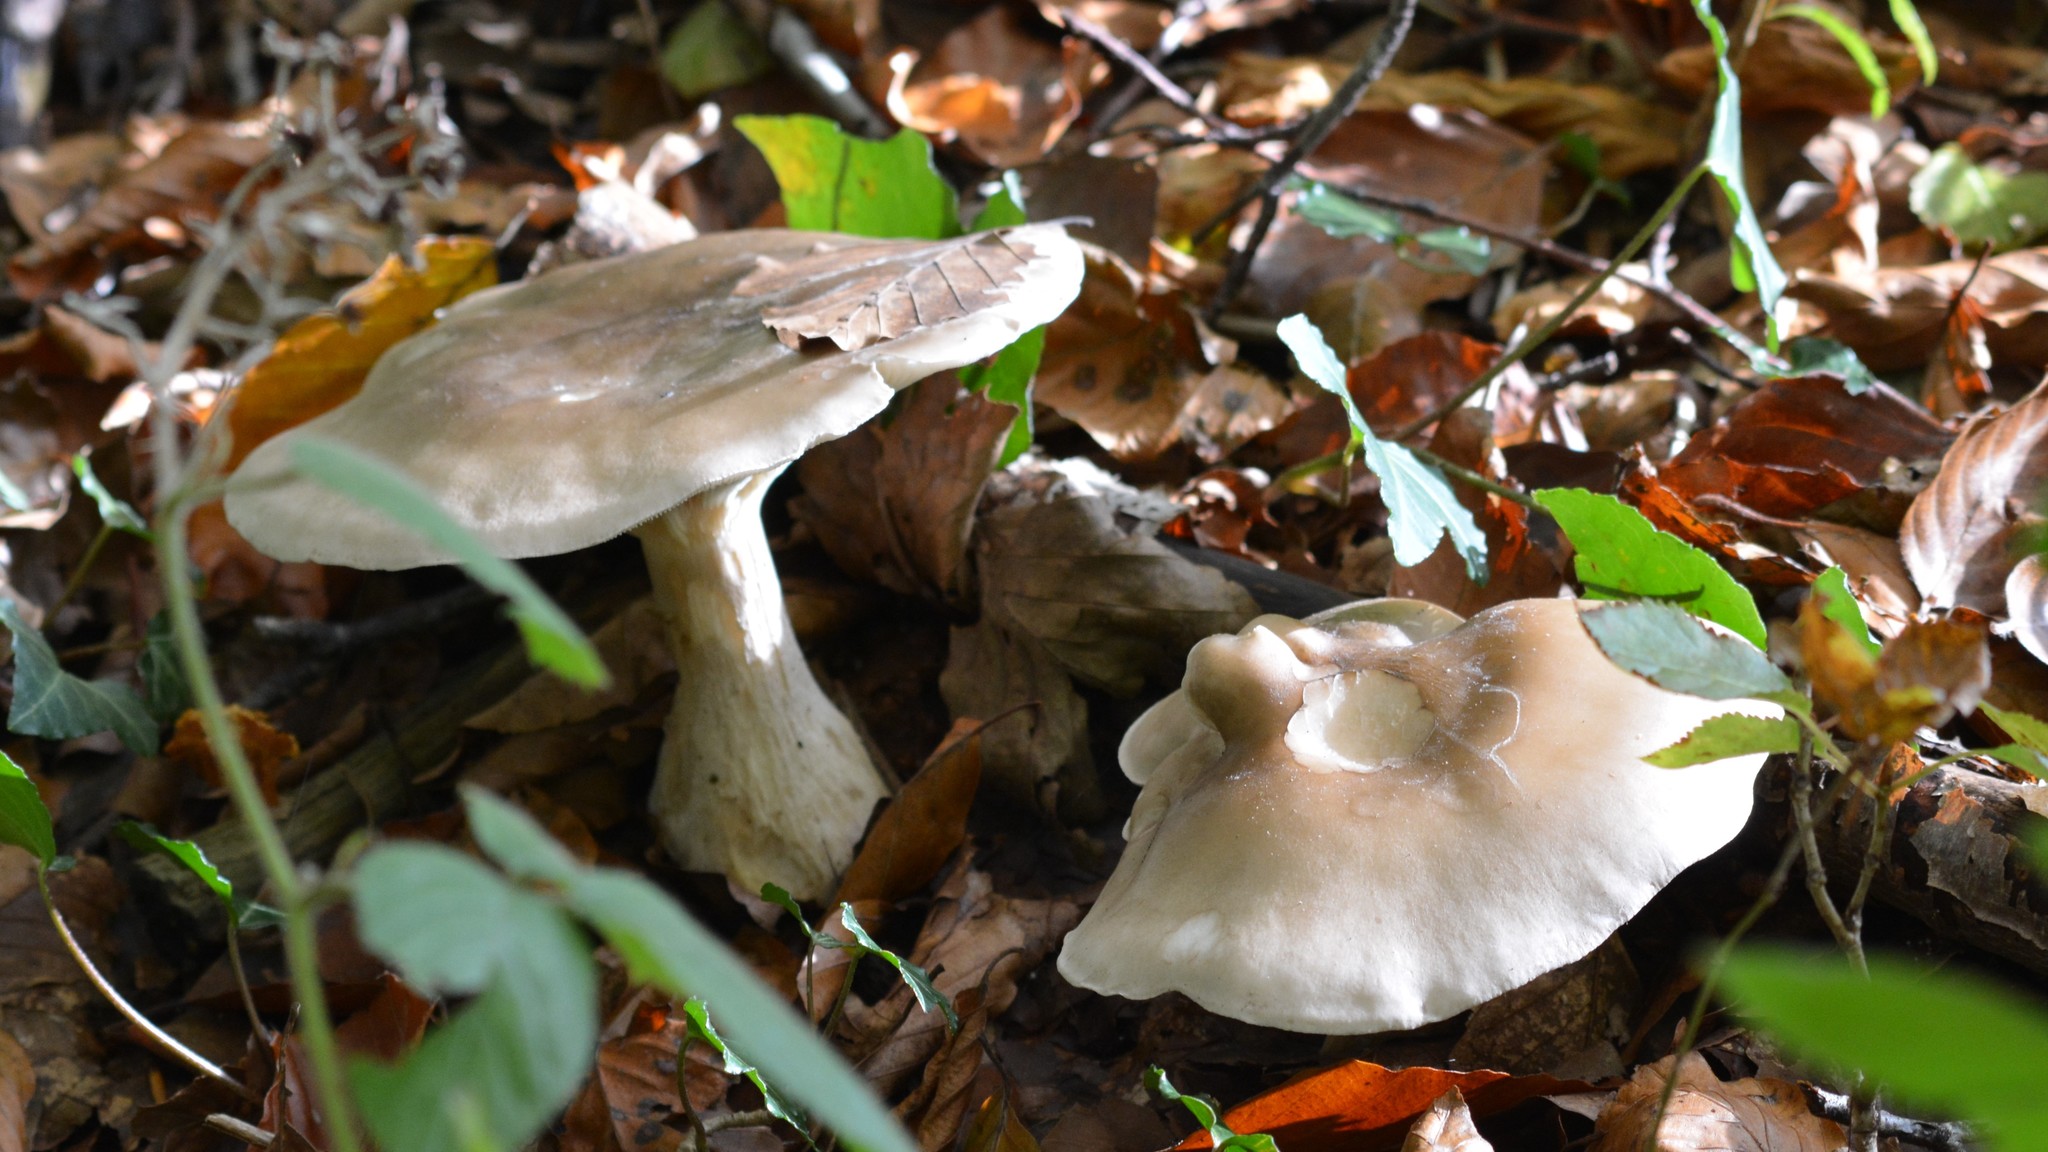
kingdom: Fungi
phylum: Basidiomycota
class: Agaricomycetes
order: Agaricales
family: Tricholomataceae
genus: Clitocybe
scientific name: Clitocybe nebularis
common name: Clouded agaric
